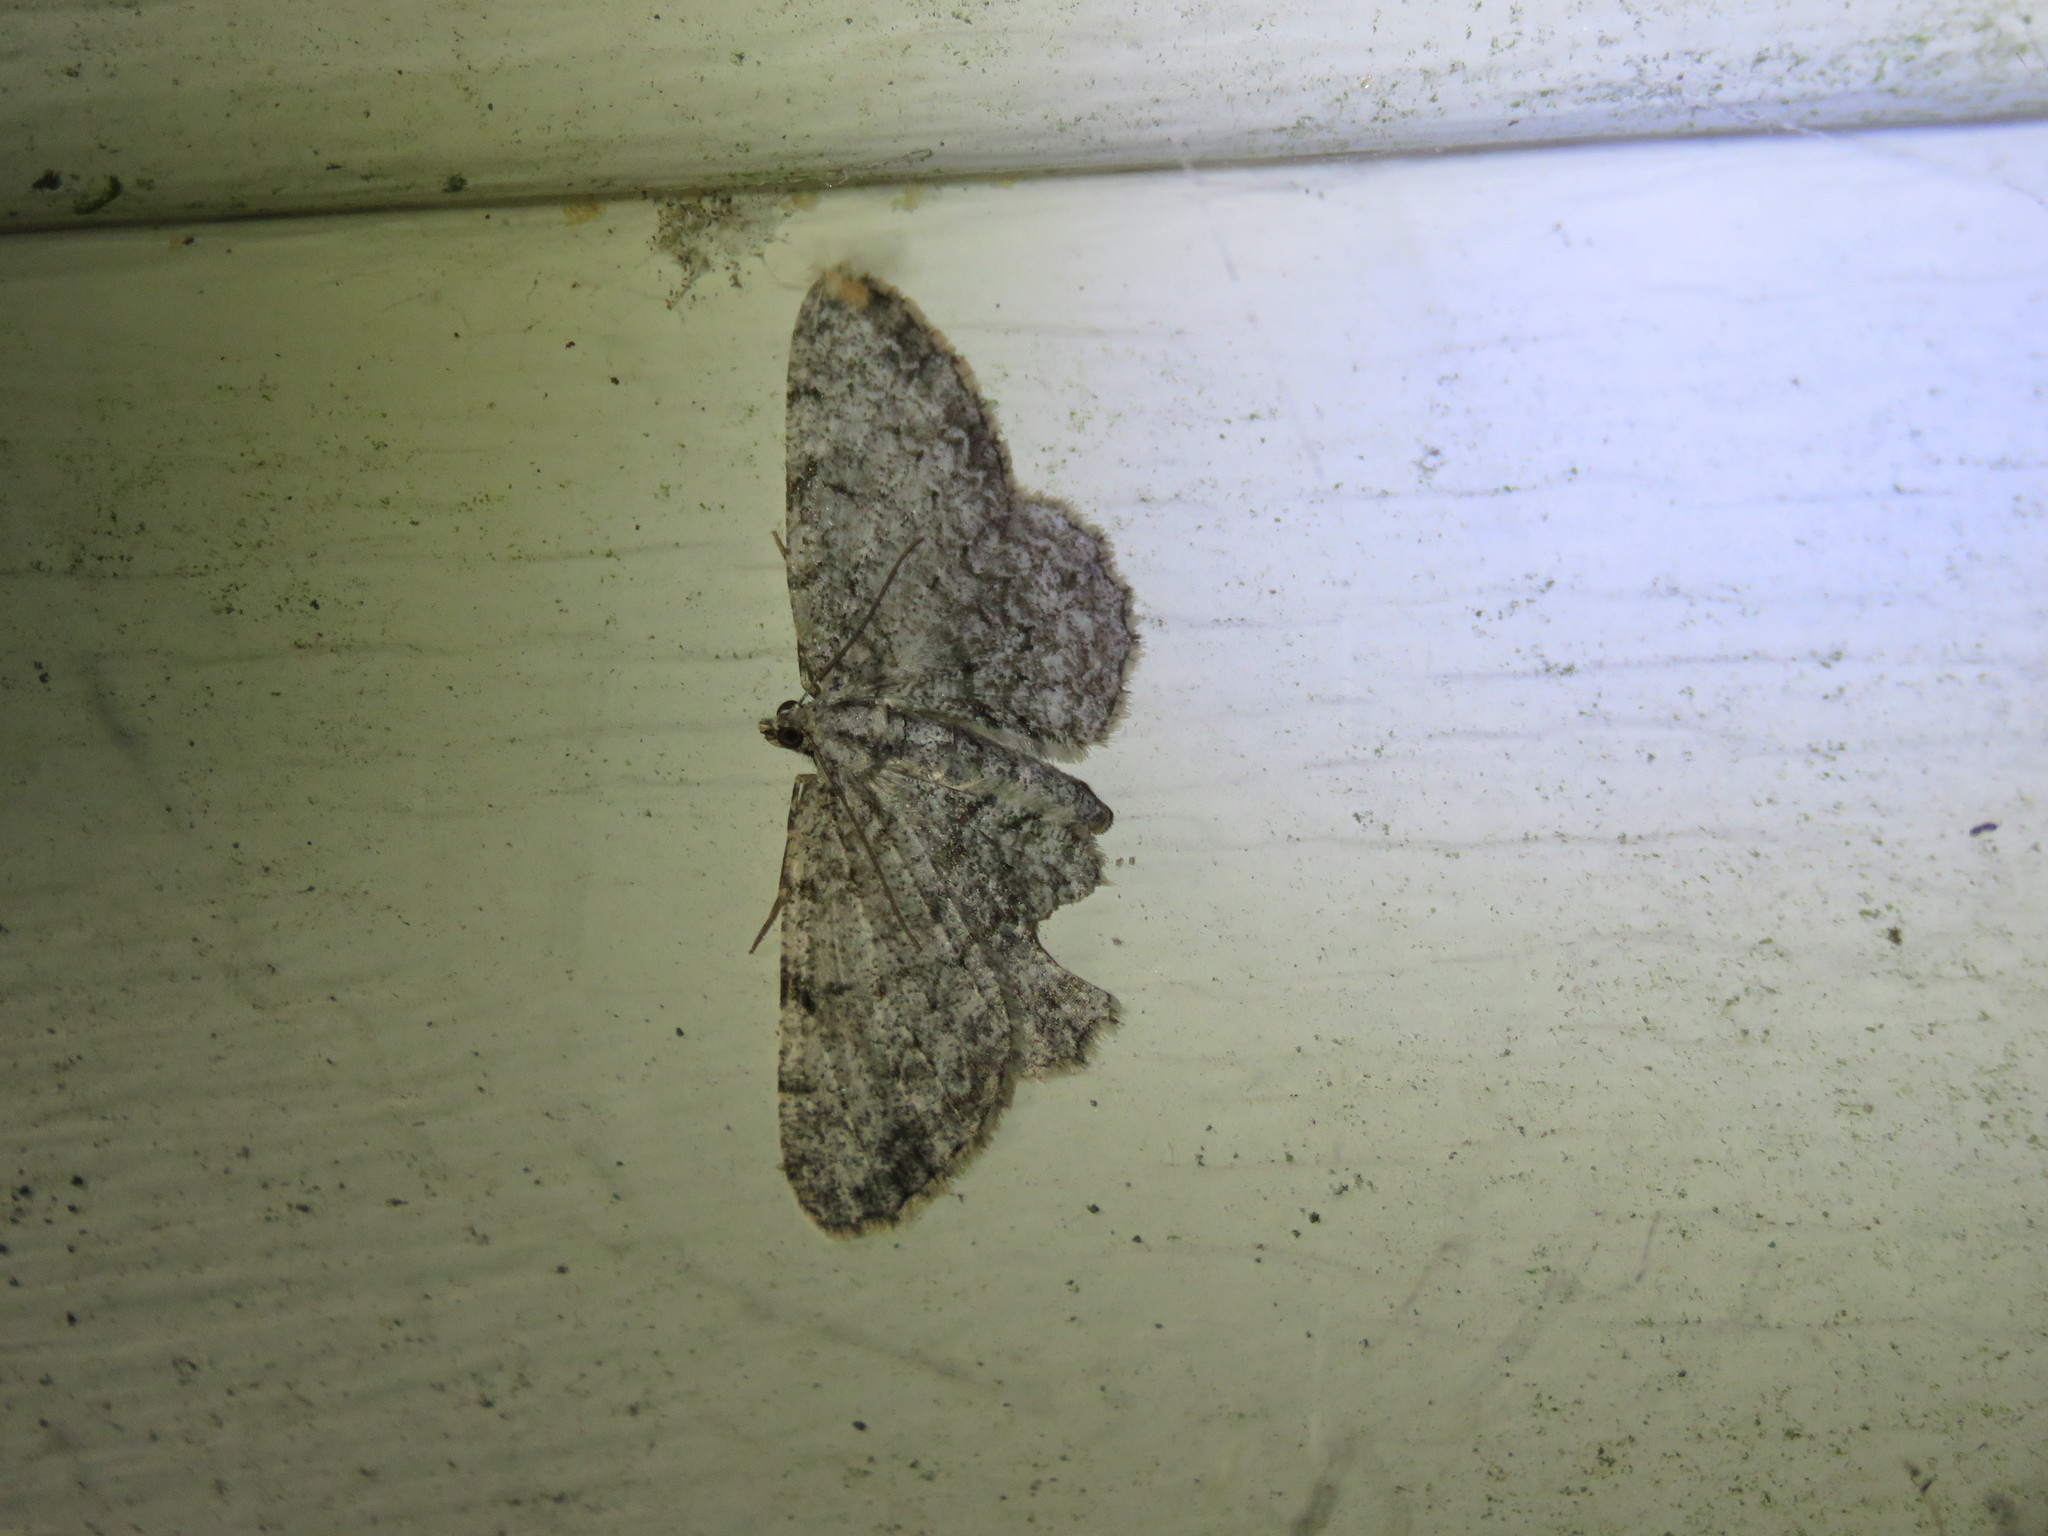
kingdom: Animalia
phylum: Arthropoda
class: Insecta
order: Lepidoptera
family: Geometridae
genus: Protoboarmia
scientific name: Protoboarmia porcelaria
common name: Porcelain gray
